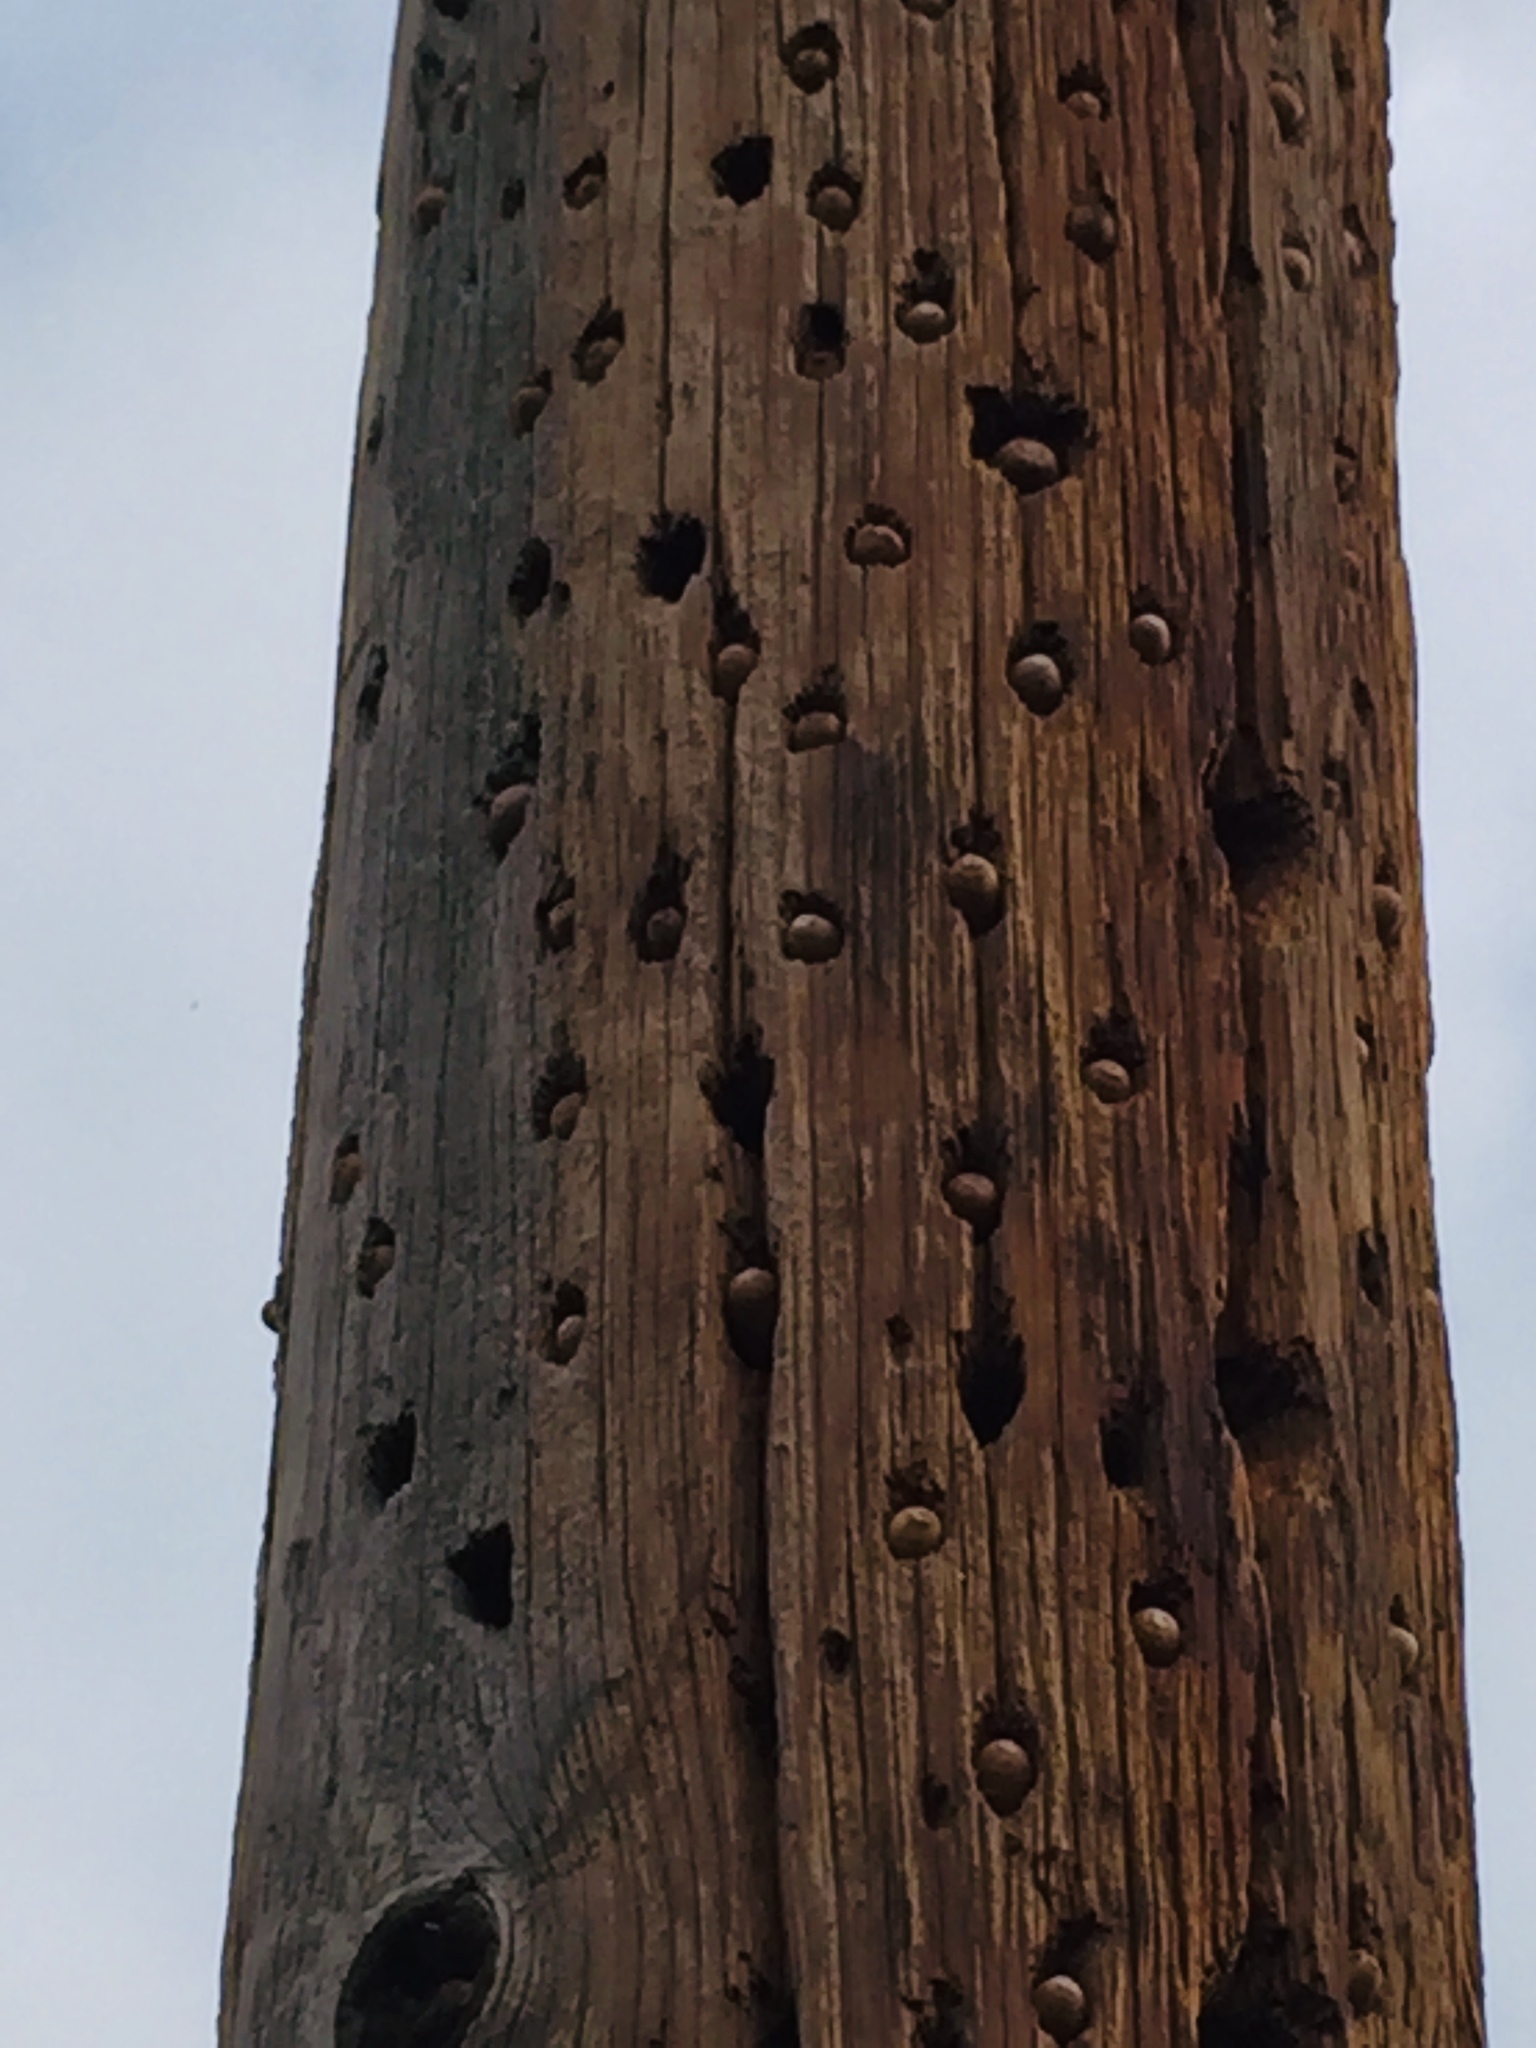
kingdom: Animalia
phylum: Chordata
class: Aves
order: Piciformes
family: Picidae
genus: Melanerpes
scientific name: Melanerpes formicivorus
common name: Acorn woodpecker
